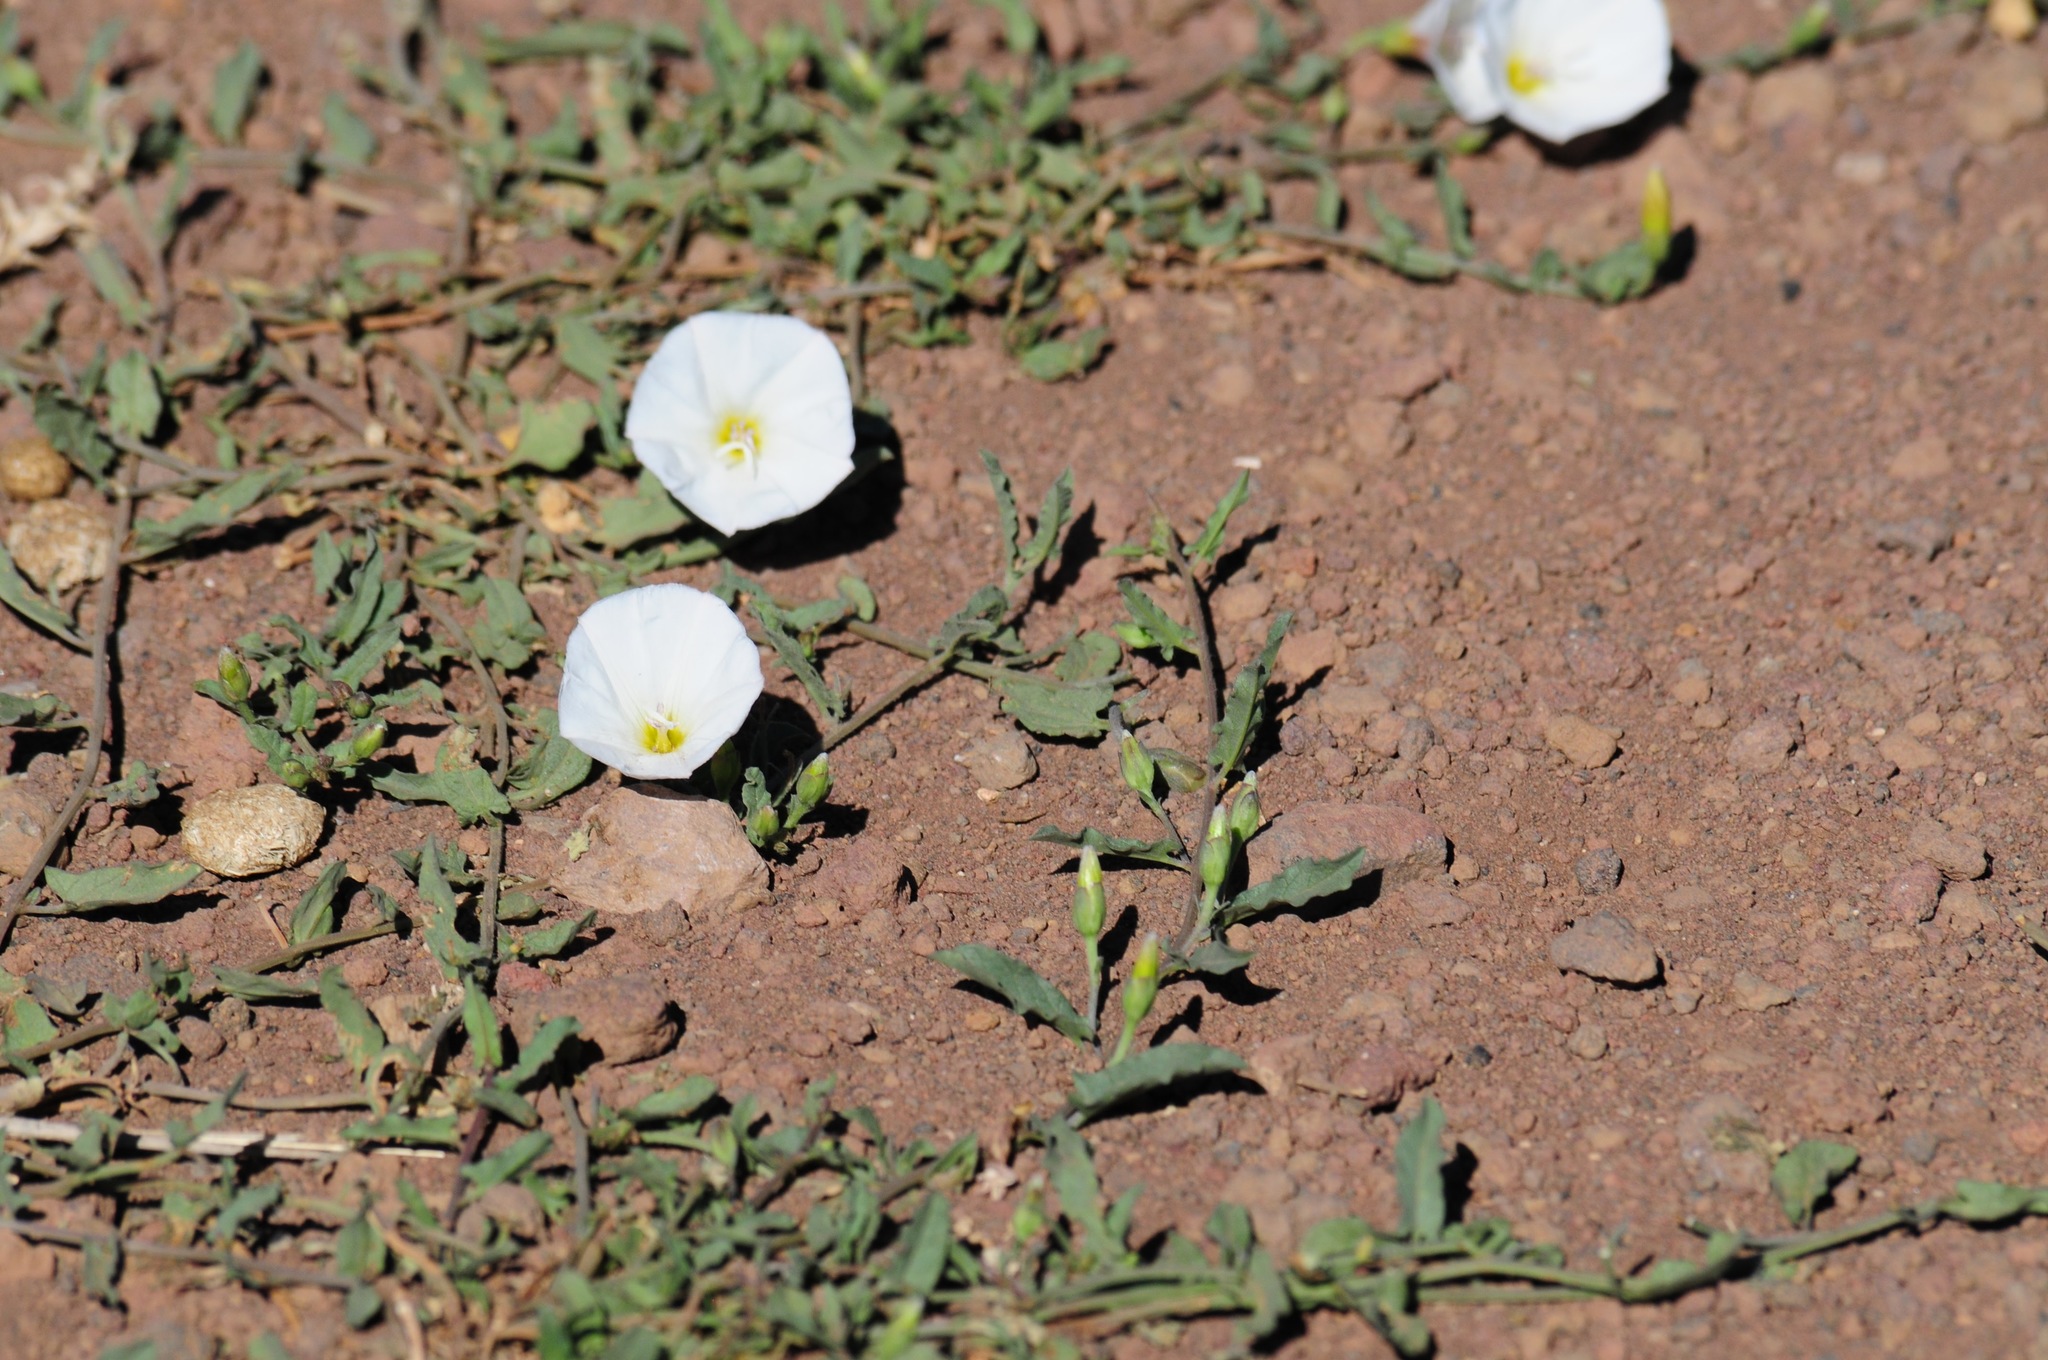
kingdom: Plantae
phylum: Tracheophyta
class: Magnoliopsida
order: Solanales
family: Convolvulaceae
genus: Convolvulus
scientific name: Convolvulus arvensis
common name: Field bindweed
